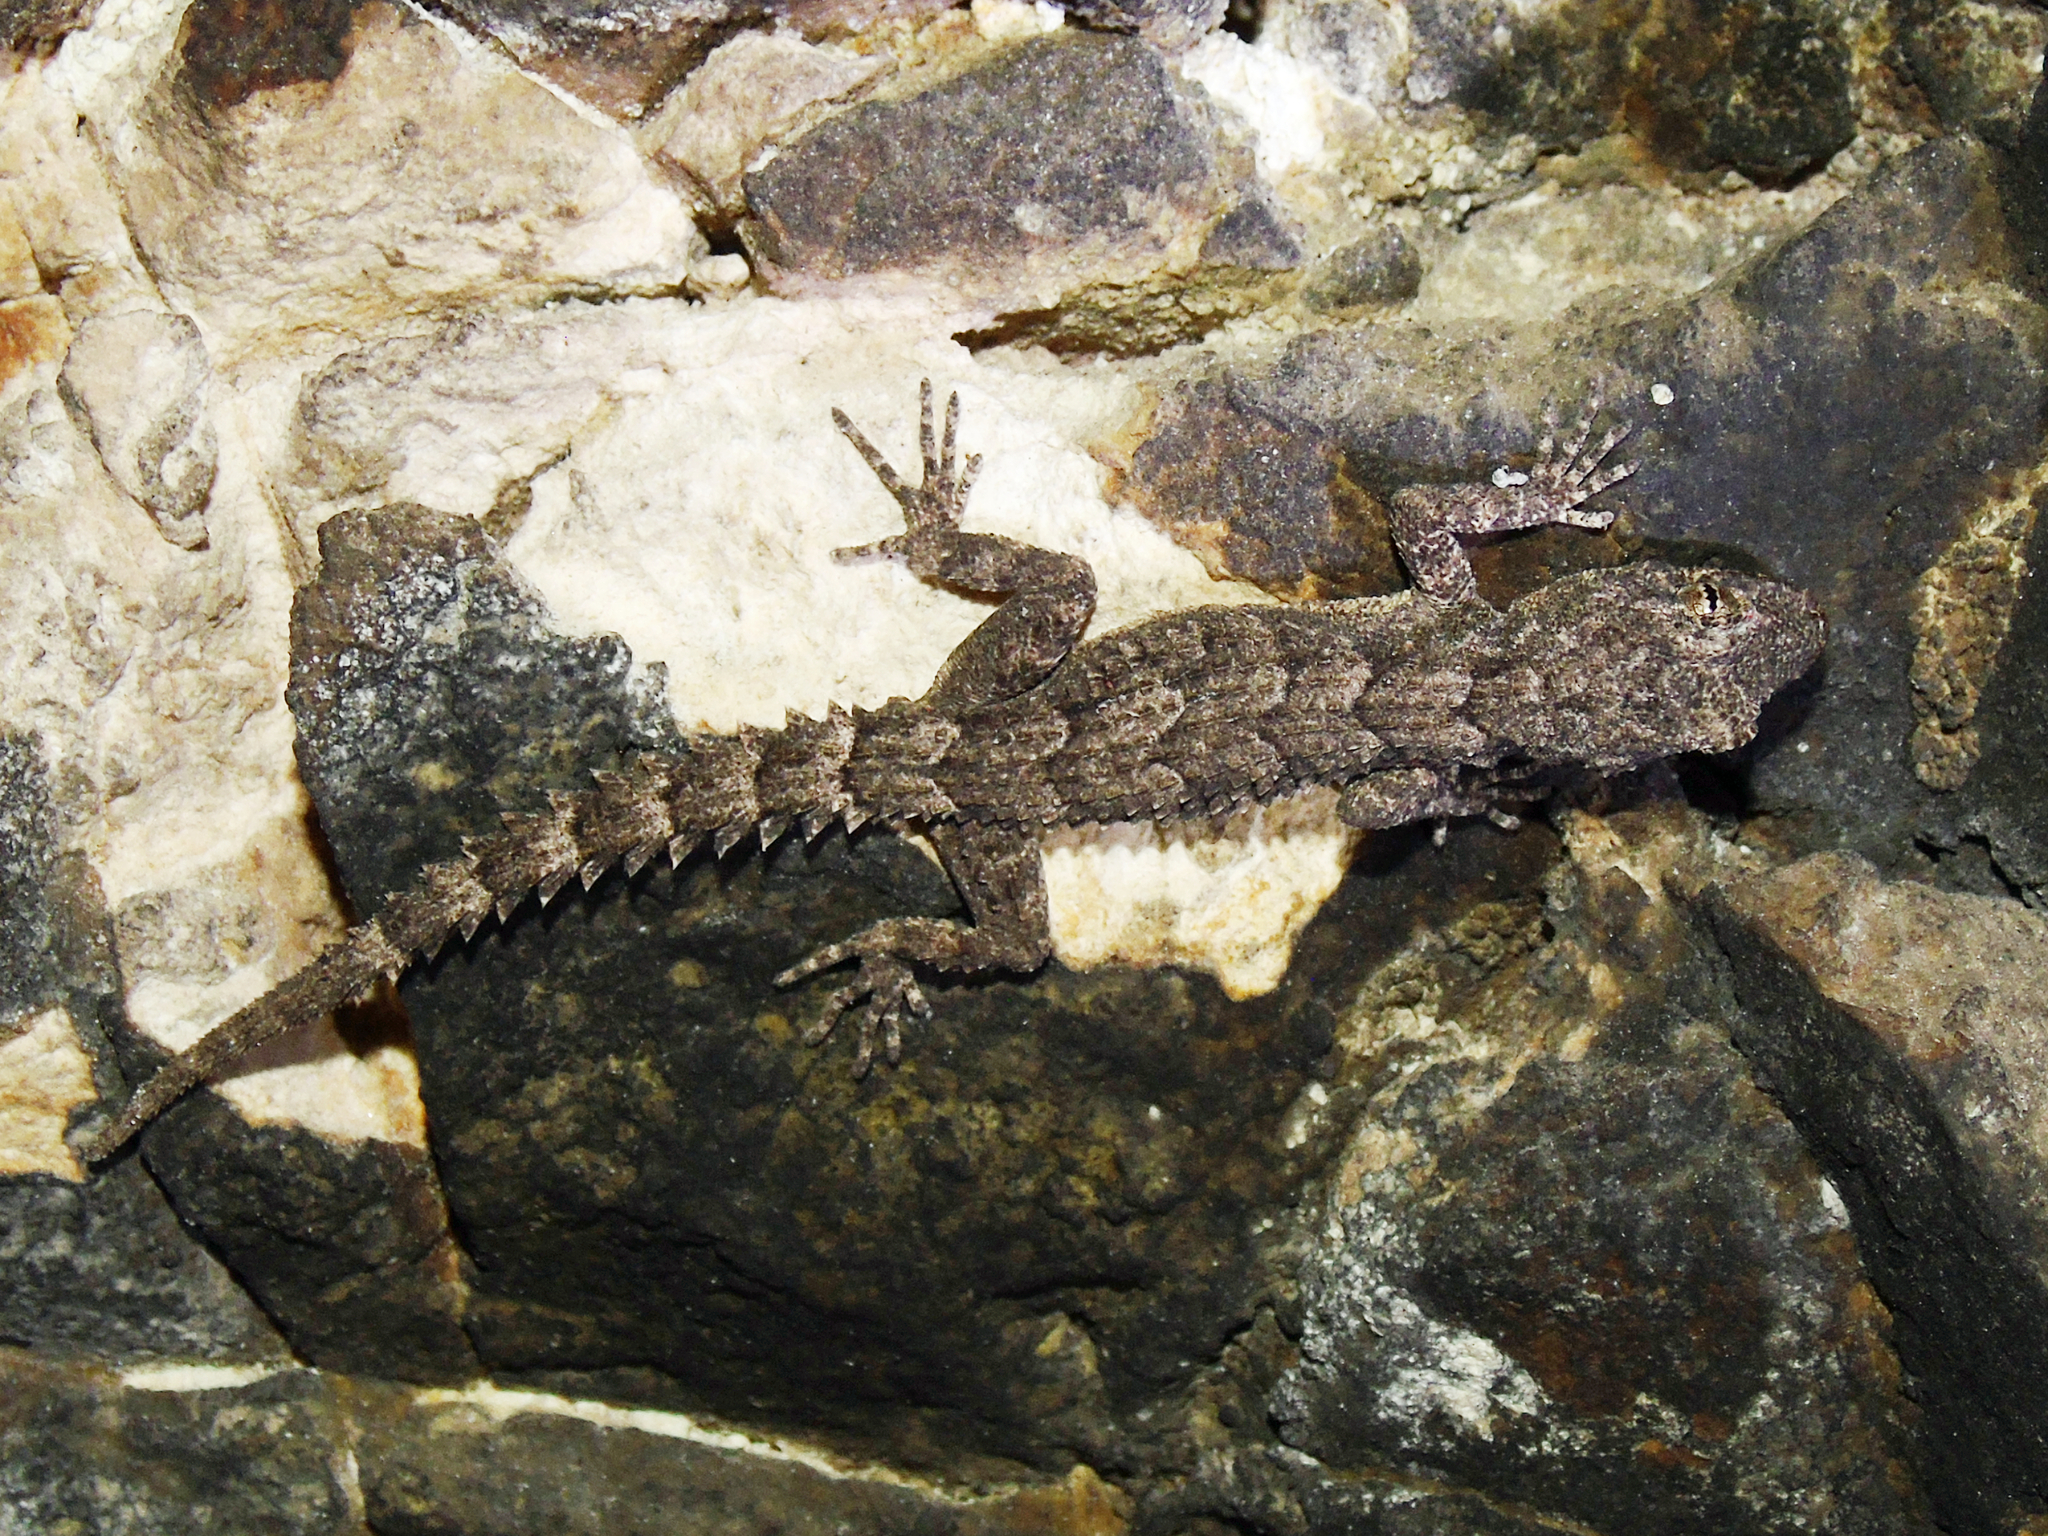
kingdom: Animalia
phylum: Chordata
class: Squamata
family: Gekkonidae
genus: Mediodactylus
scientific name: Mediodactylus heterocercus
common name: Asia minor thin-toed gecko
